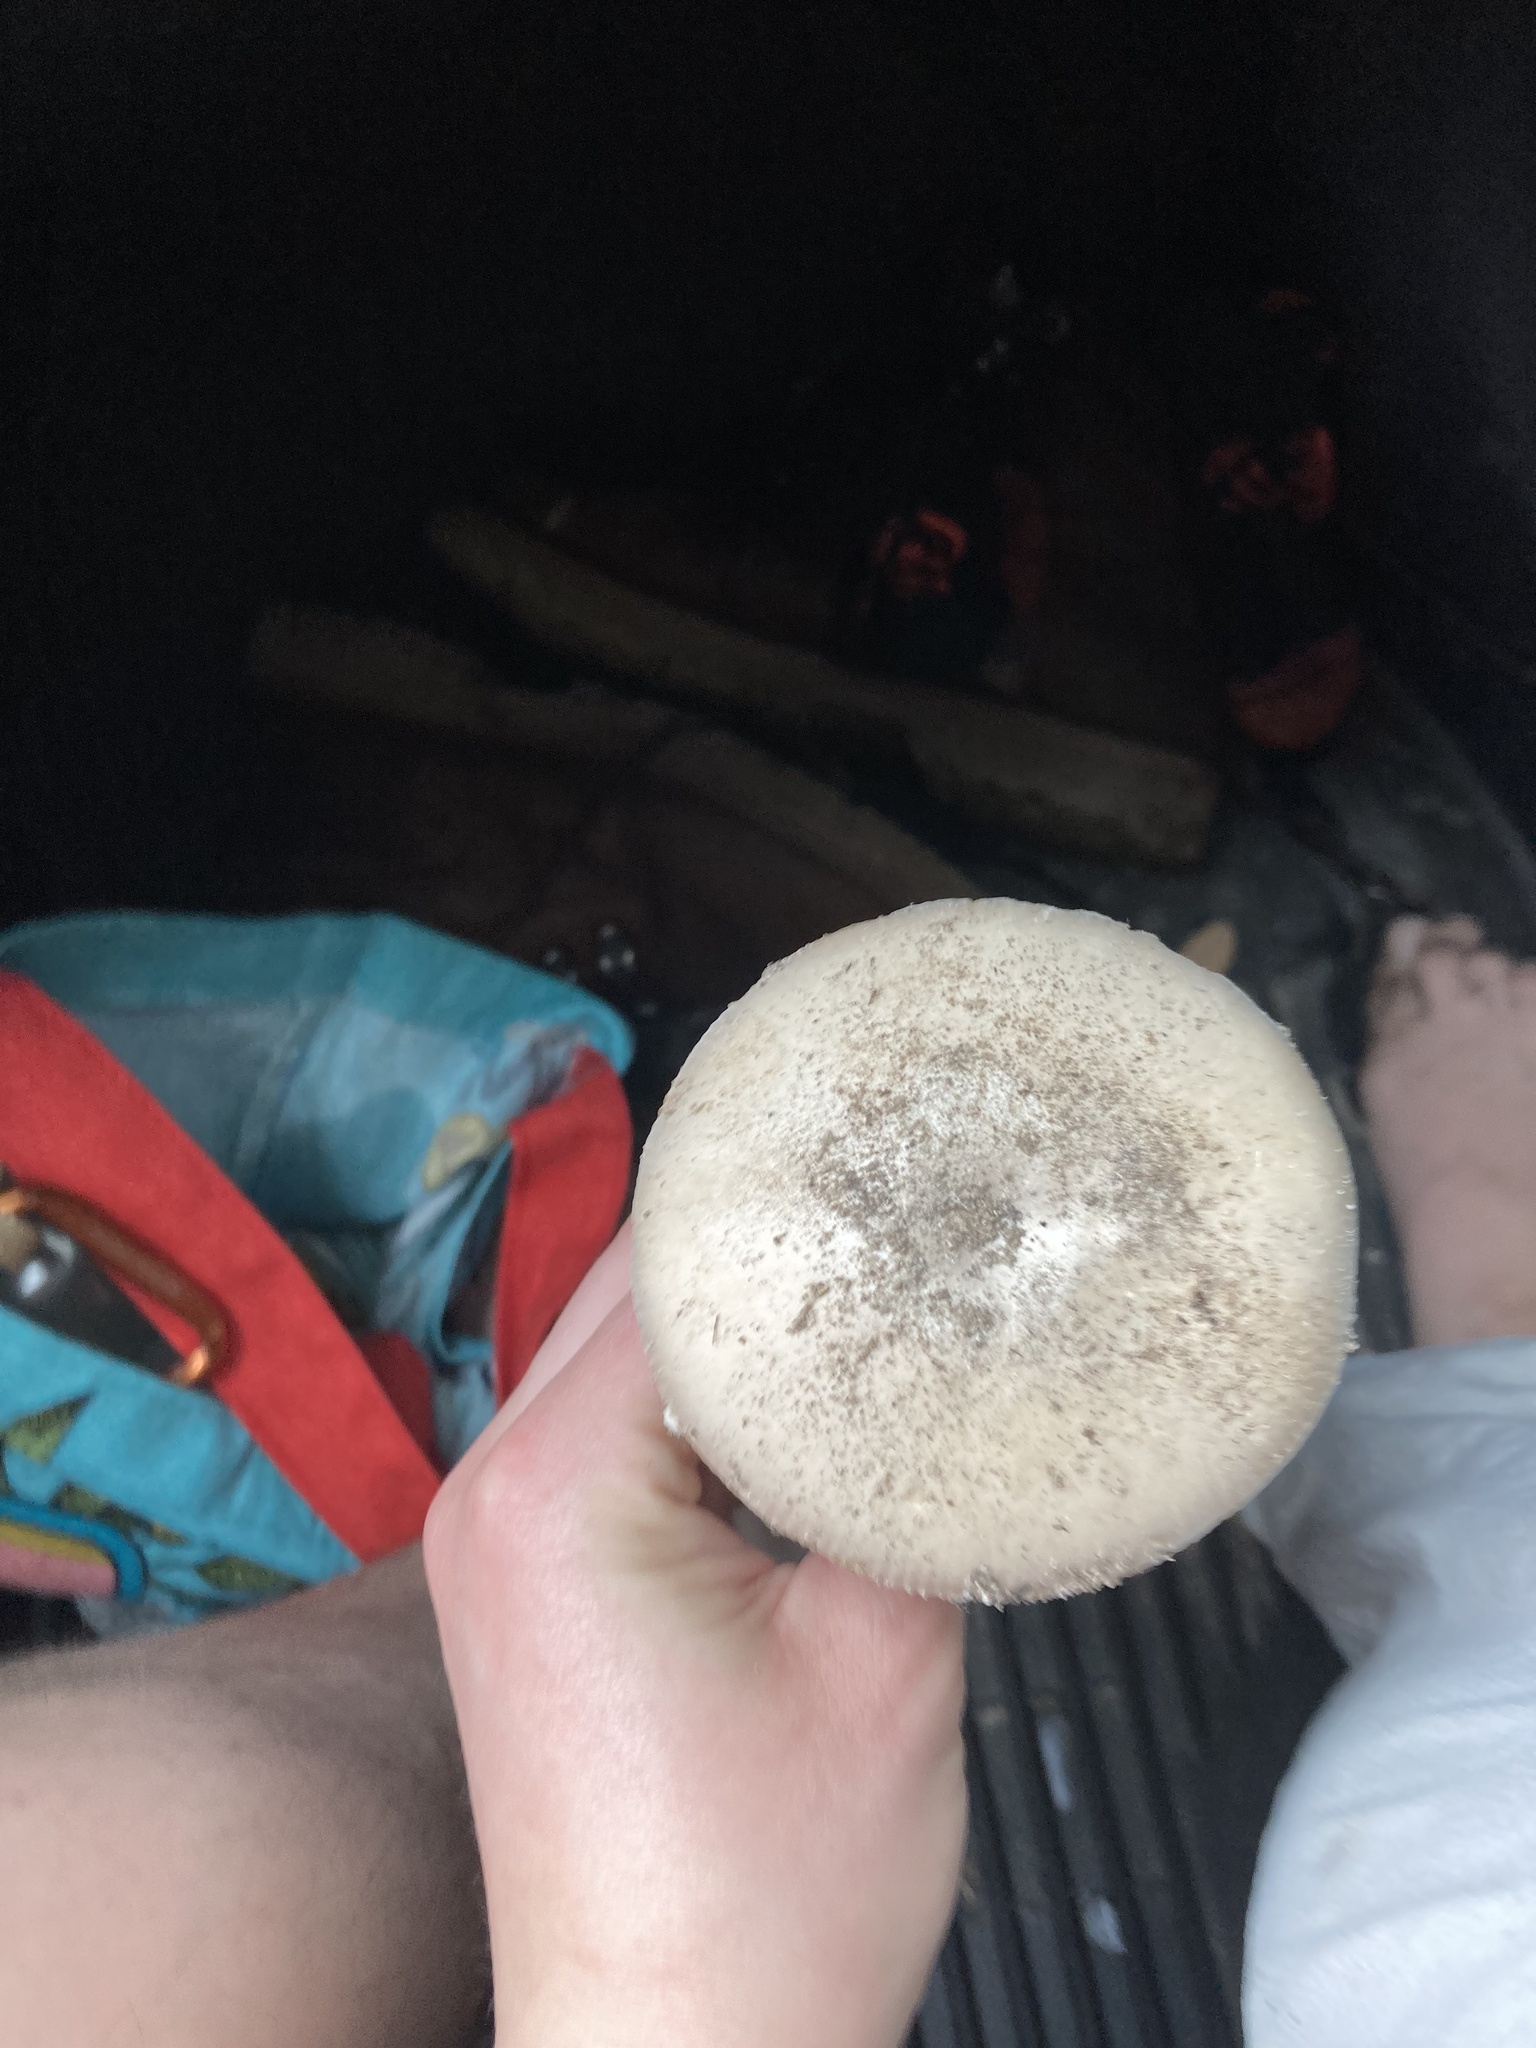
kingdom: Fungi
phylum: Basidiomycota
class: Agaricomycetes
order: Agaricales
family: Amanitaceae
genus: Amanita
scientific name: Amanita spreta
